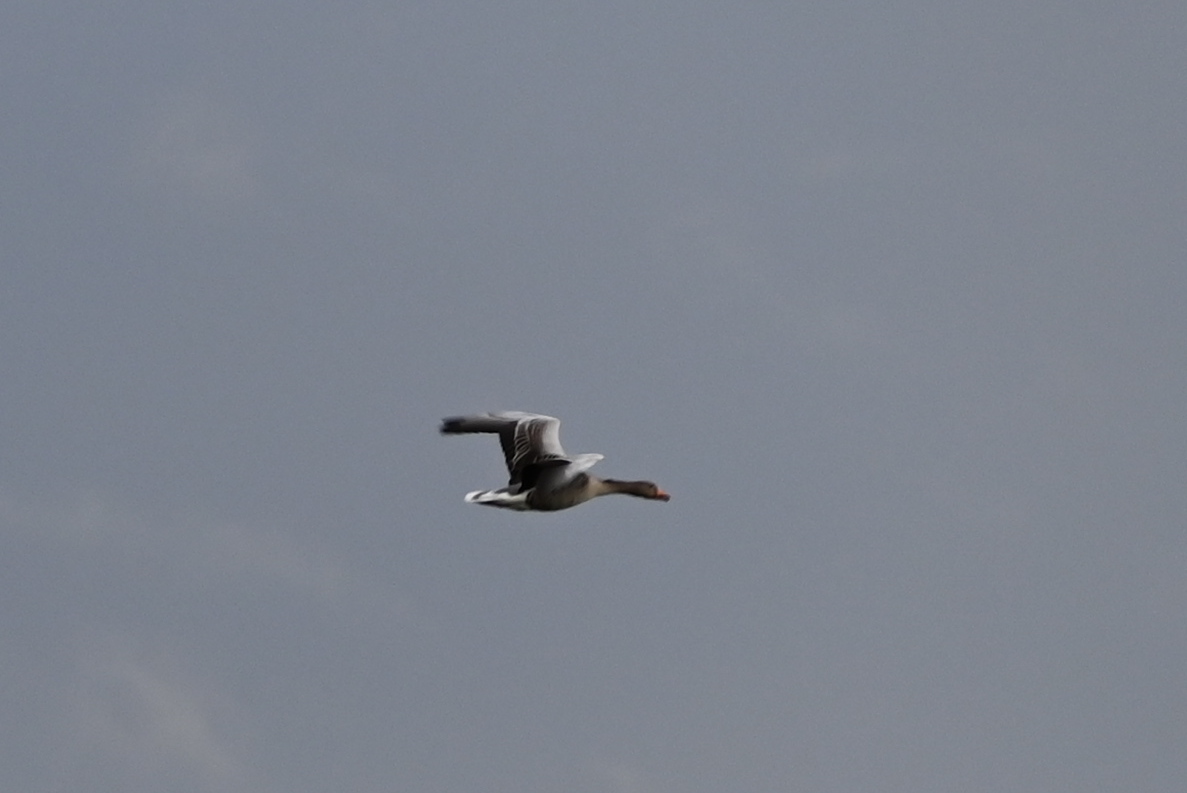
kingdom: Animalia
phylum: Chordata
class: Aves
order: Anseriformes
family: Anatidae
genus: Anser
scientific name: Anser anser
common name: Greylag goose
